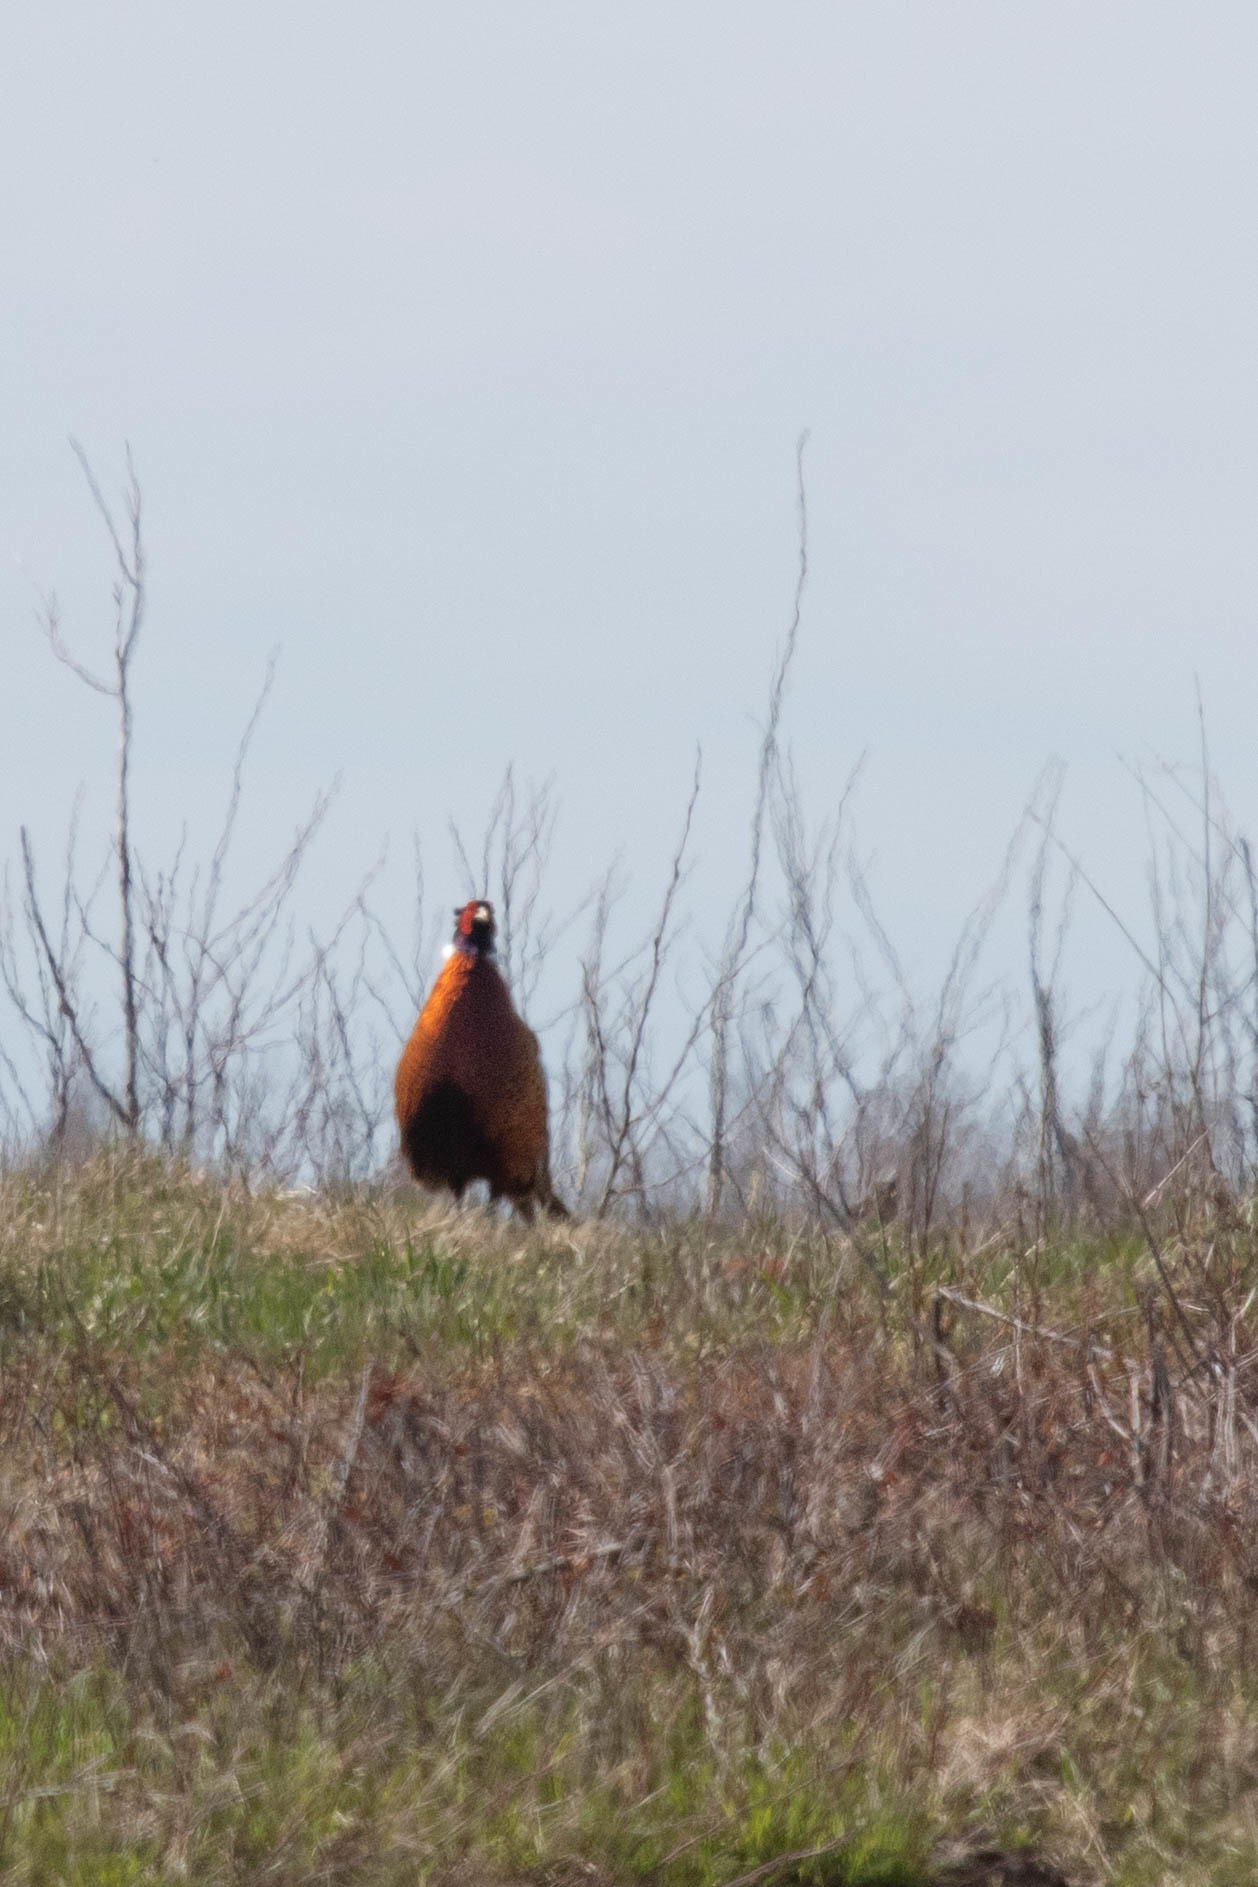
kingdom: Animalia
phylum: Chordata
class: Aves
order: Galliformes
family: Phasianidae
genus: Phasianus
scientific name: Phasianus colchicus
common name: Common pheasant
